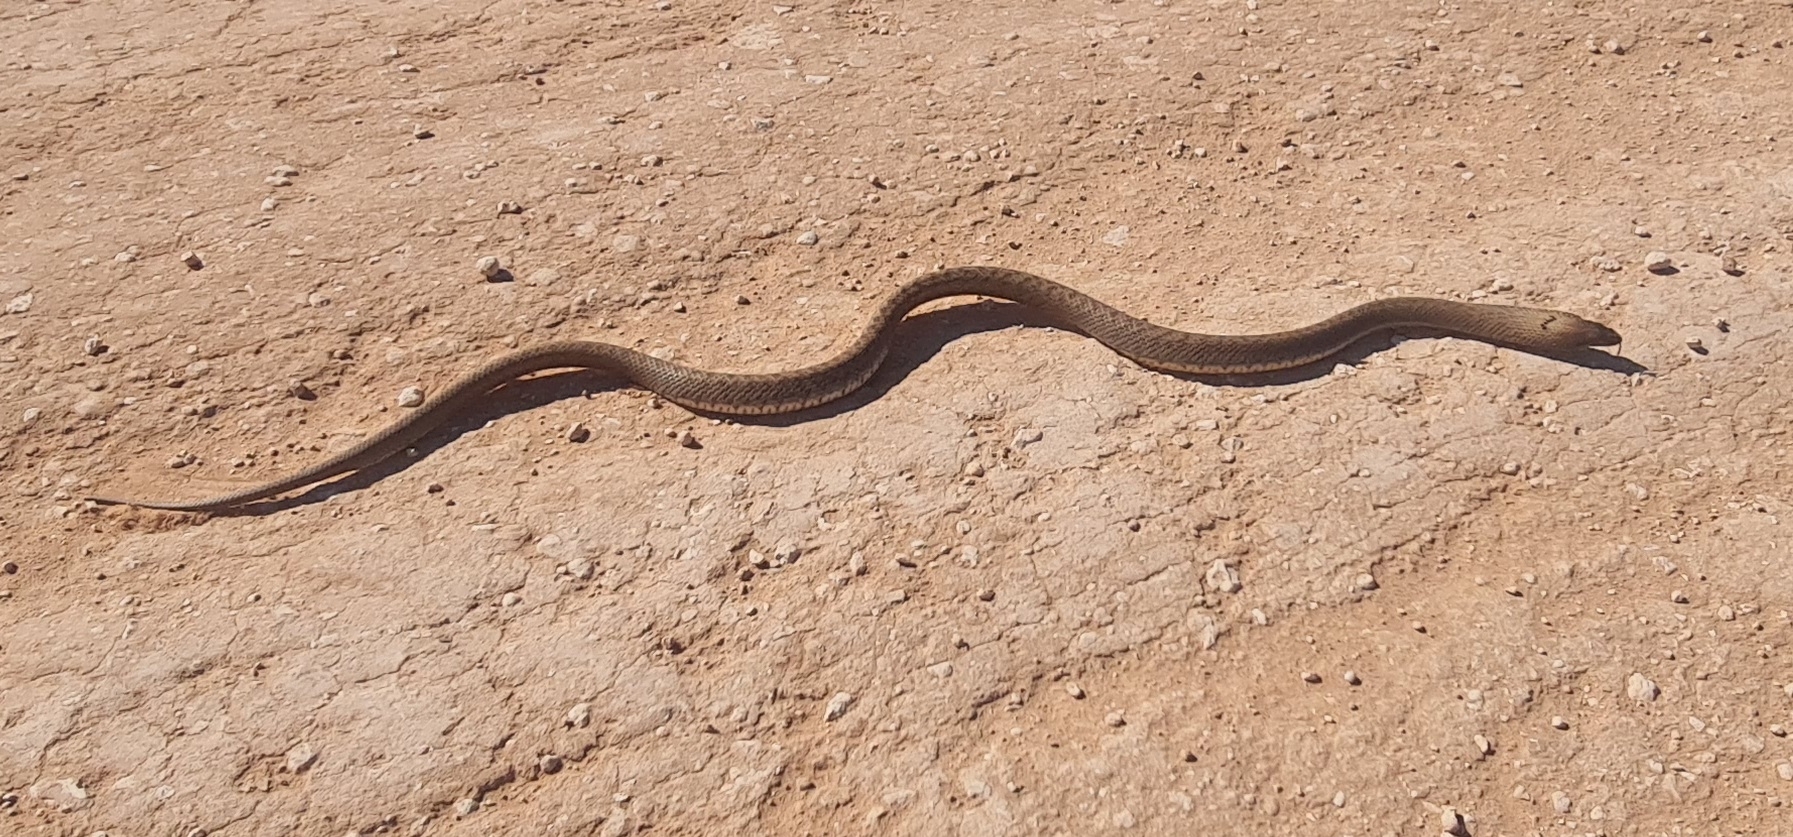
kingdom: Animalia
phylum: Chordata
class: Squamata
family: Elapidae
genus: Pseudonaja
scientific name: Pseudonaja aspidorhyncha
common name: Strap-snouted brown snake
